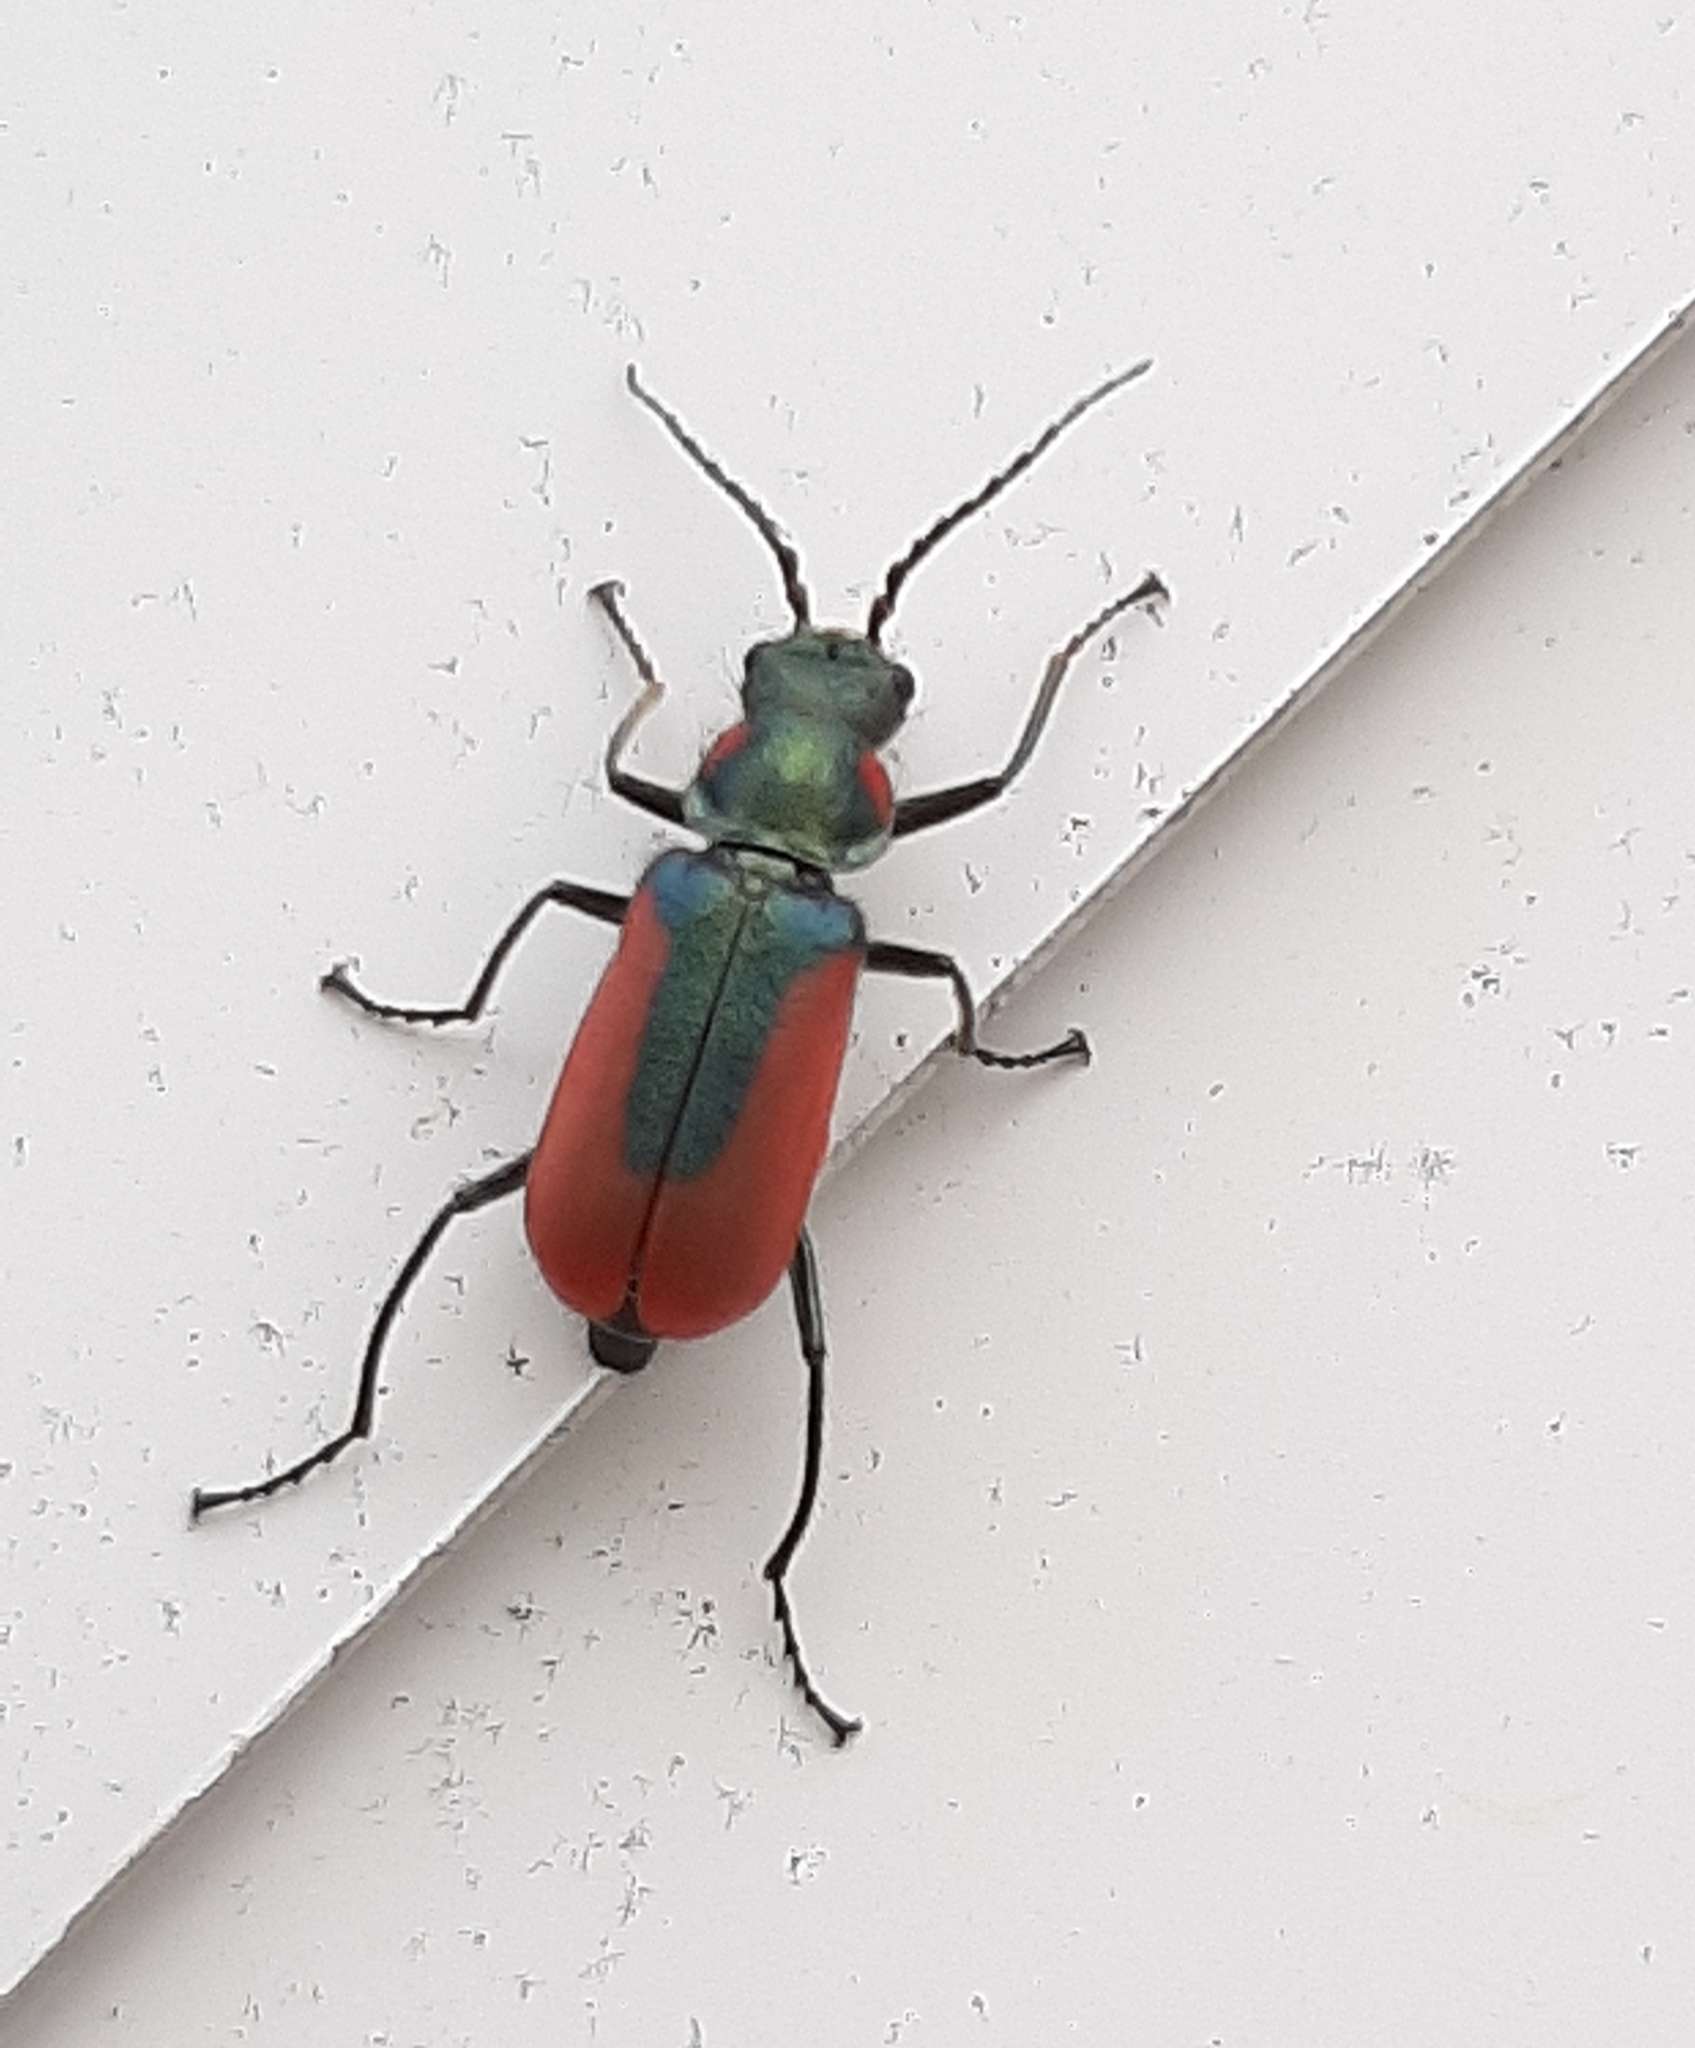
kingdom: Animalia
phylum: Arthropoda
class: Insecta
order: Coleoptera
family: Melyridae
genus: Malachius
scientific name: Malachius aeneus
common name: Scarlet malachite beetle
